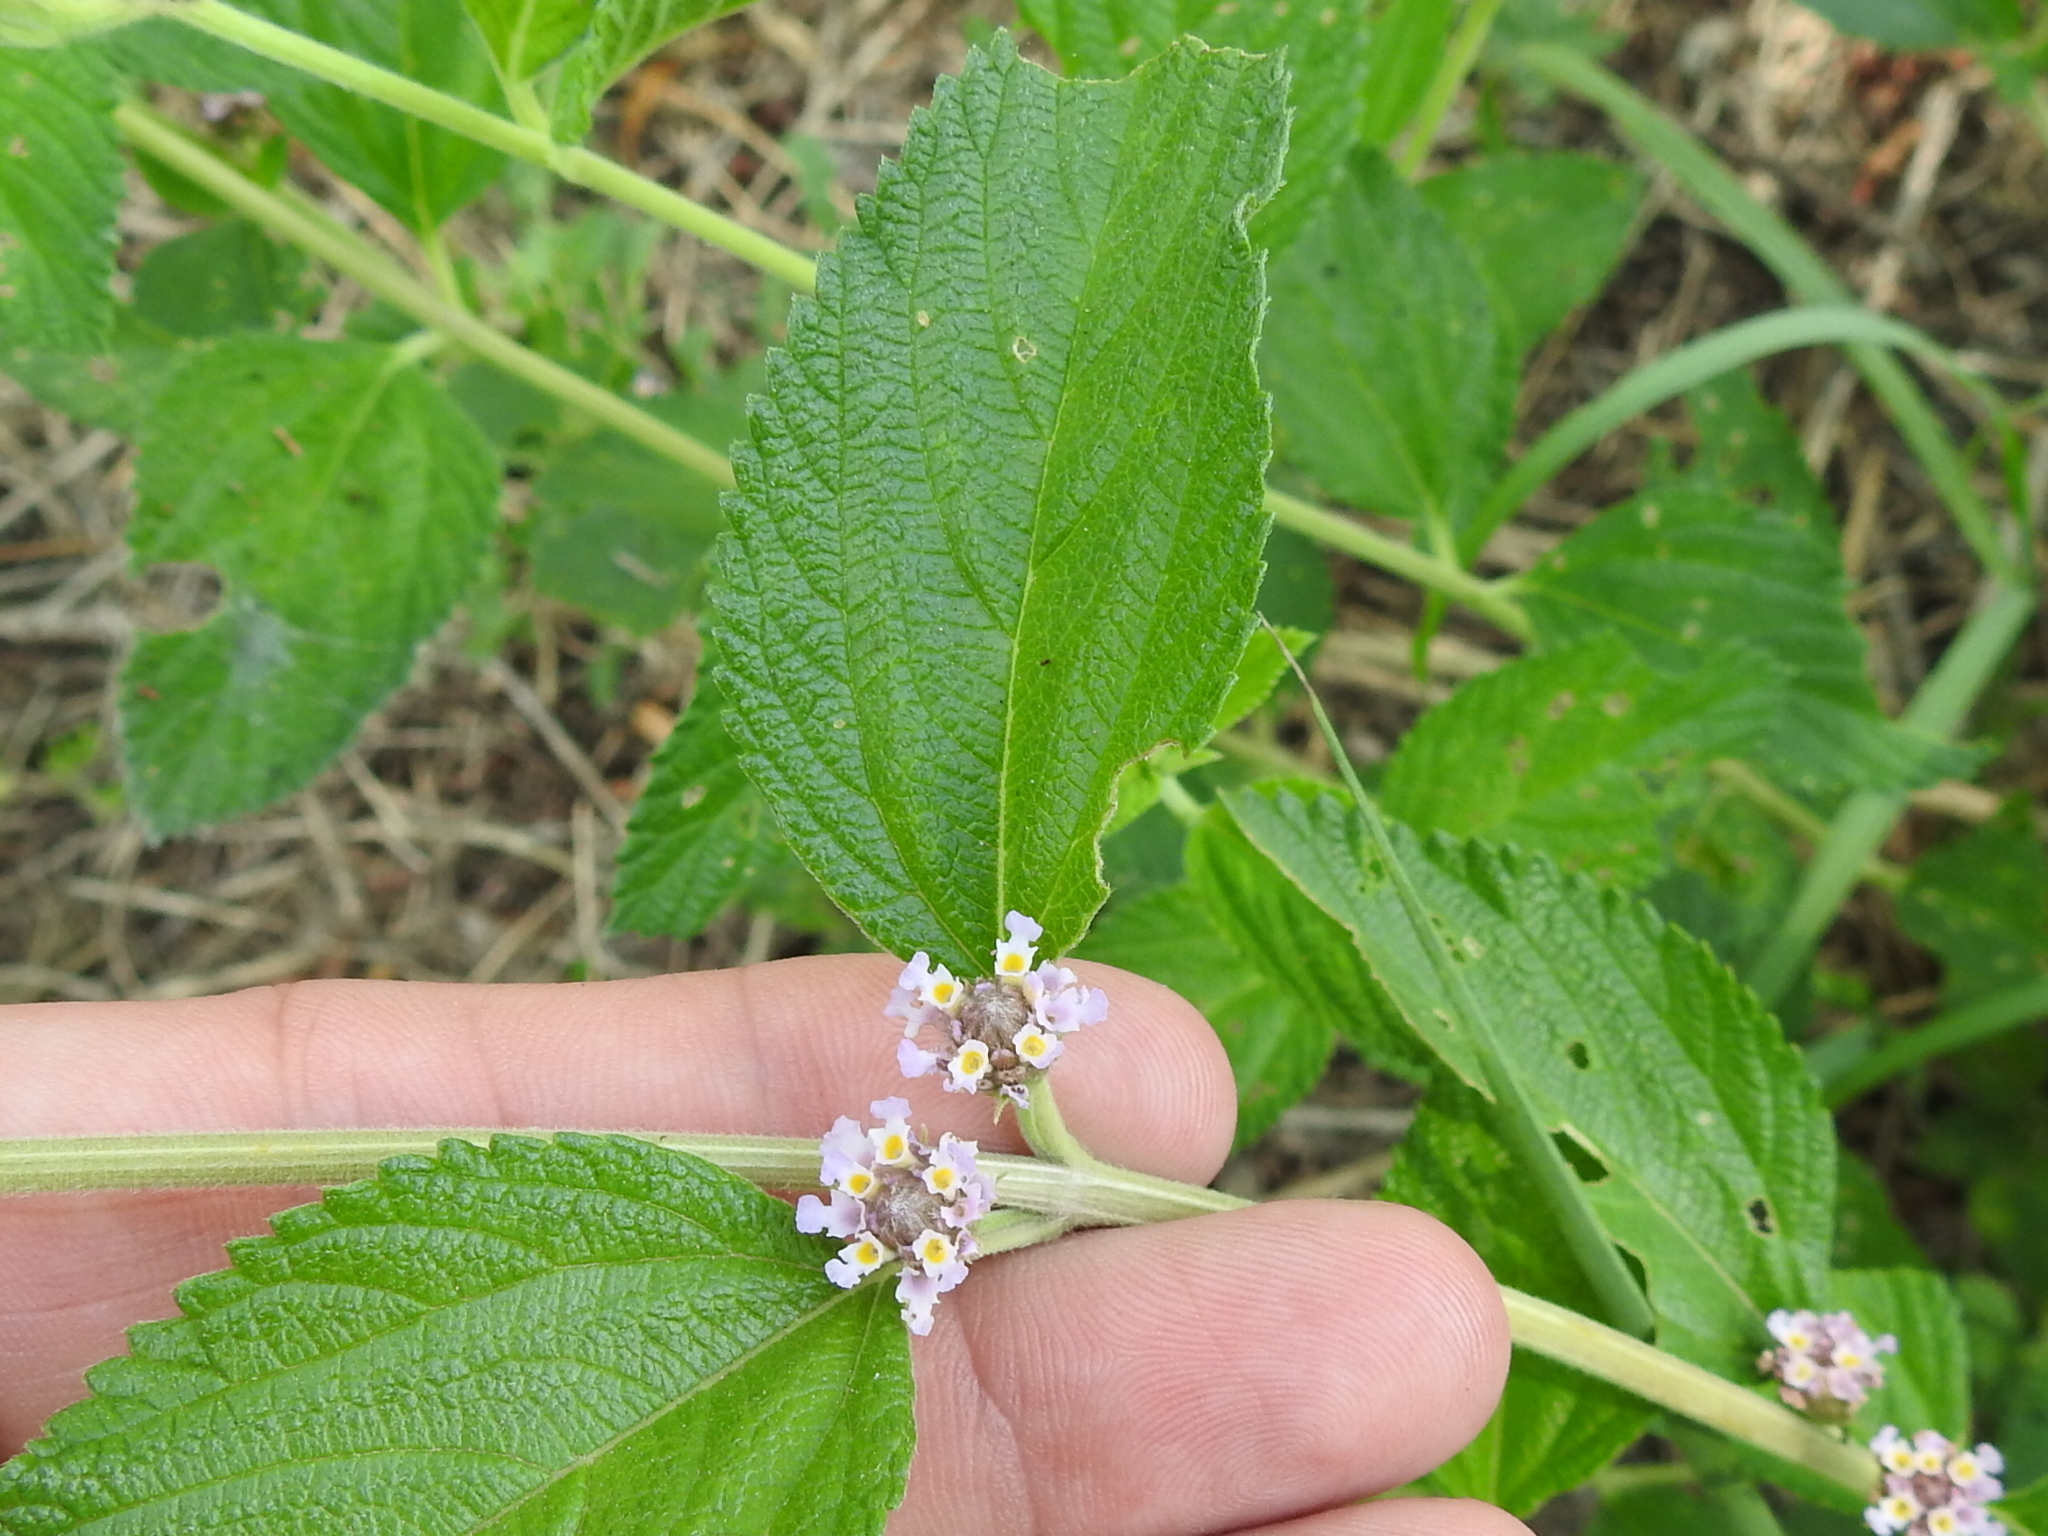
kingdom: Plantae
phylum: Tracheophyta
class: Magnoliopsida
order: Lamiales
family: Verbenaceae
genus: Lippia
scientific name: Lippia alba
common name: Bushy matgrass
